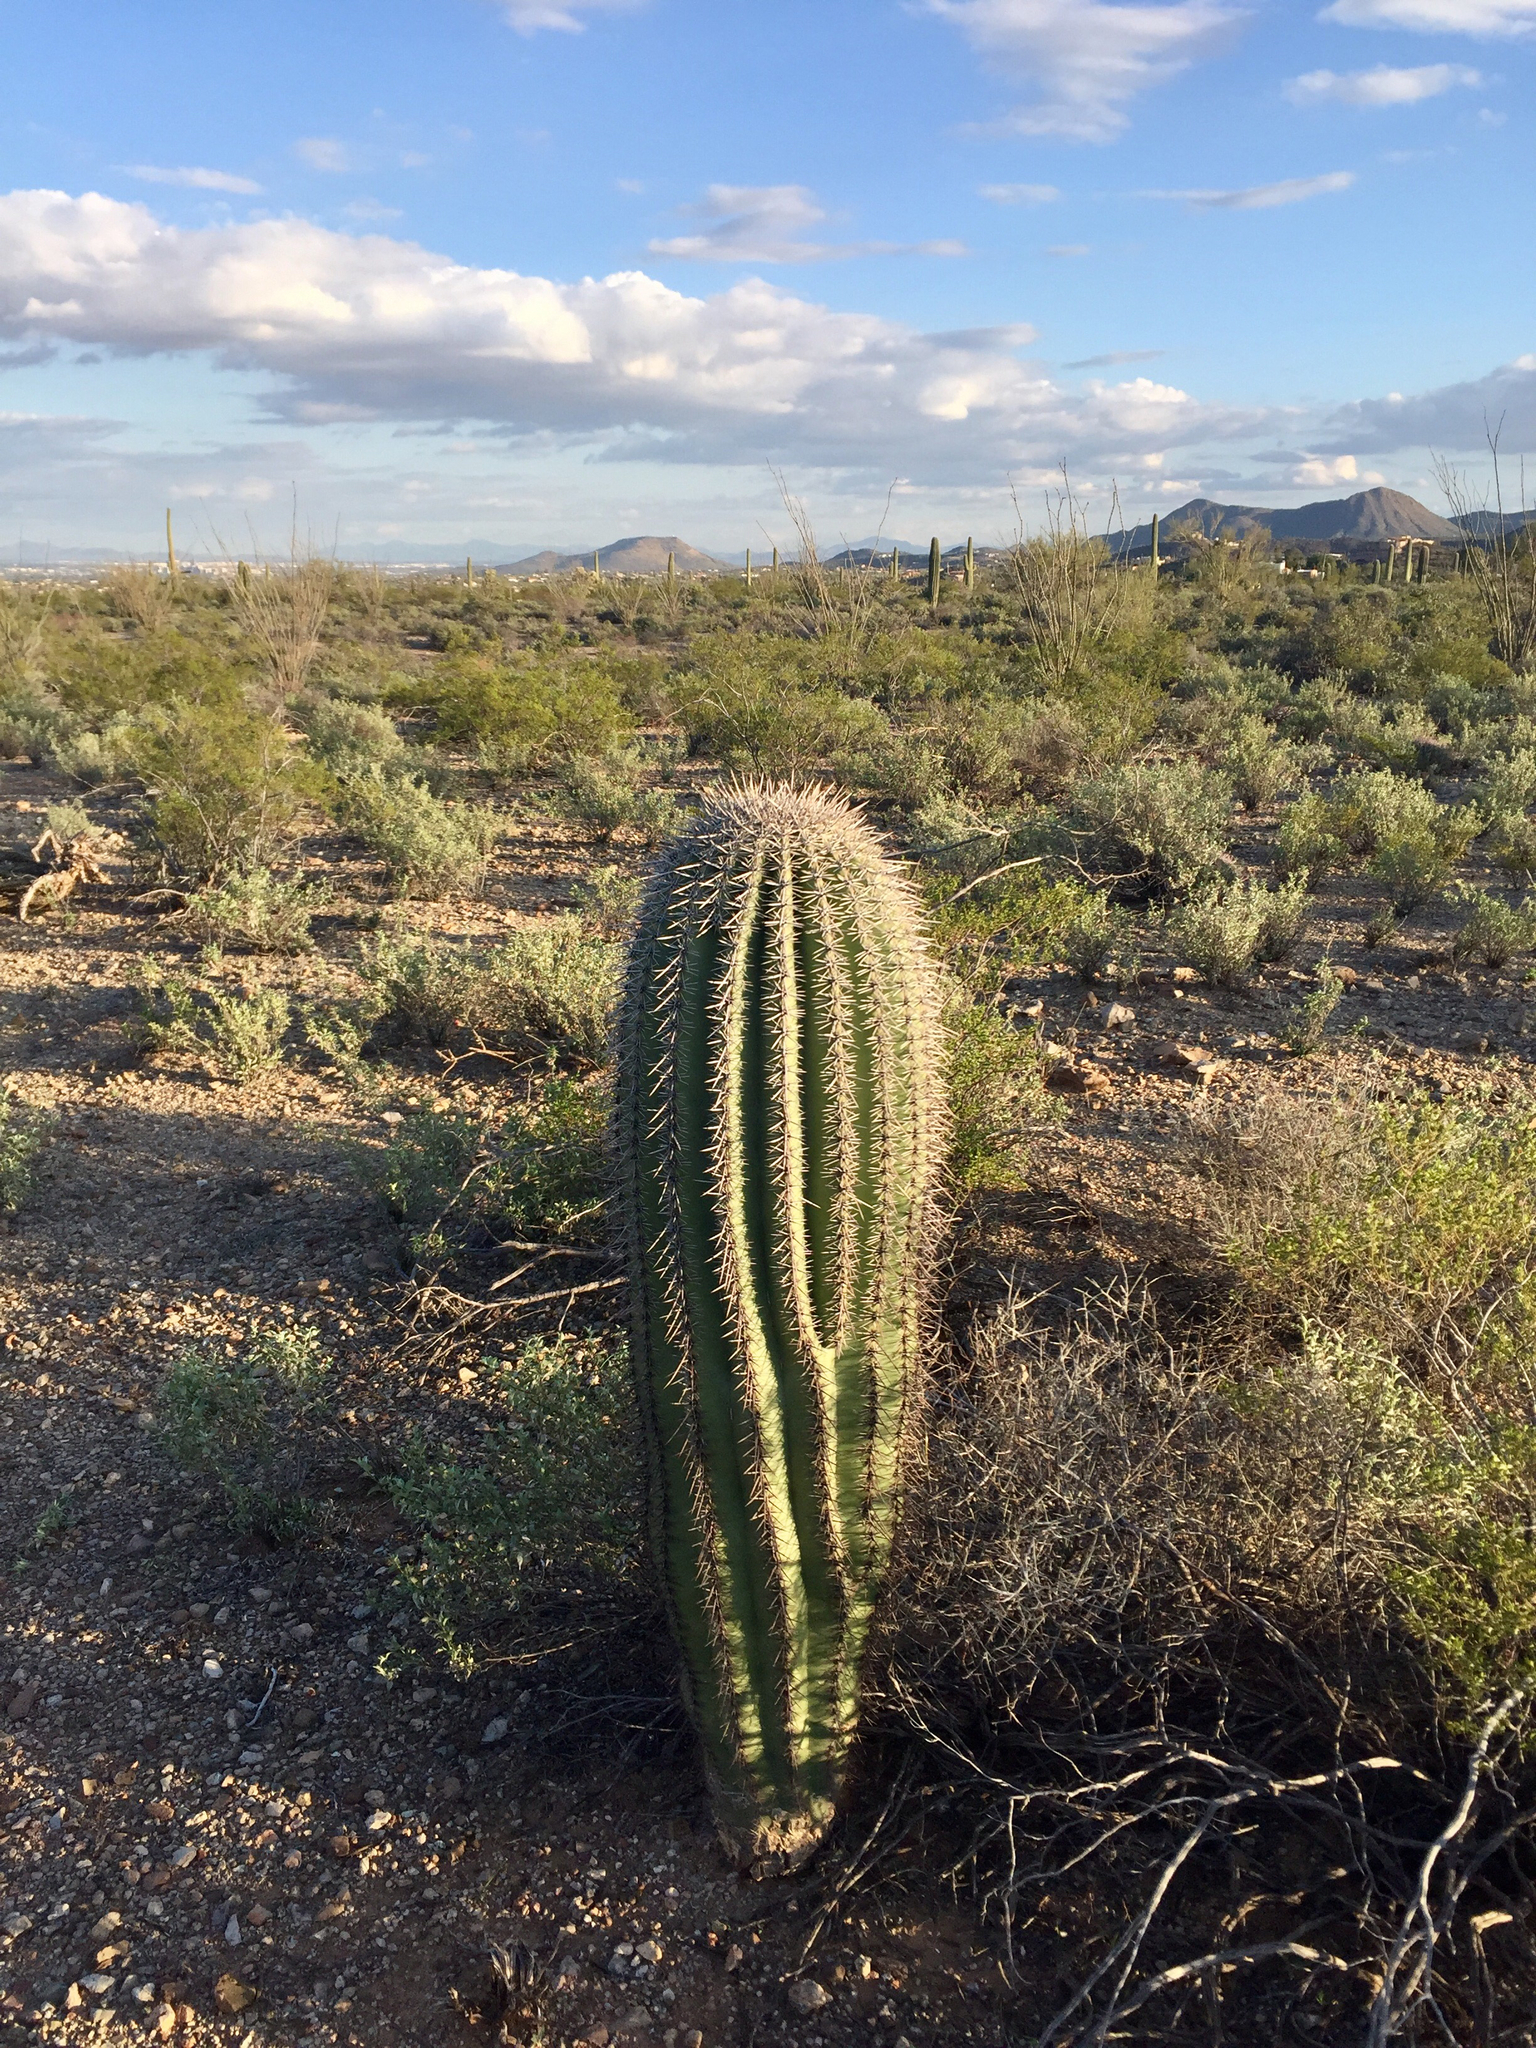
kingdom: Plantae
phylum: Tracheophyta
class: Magnoliopsida
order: Caryophyllales
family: Cactaceae
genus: Carnegiea
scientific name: Carnegiea gigantea
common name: Saguaro
